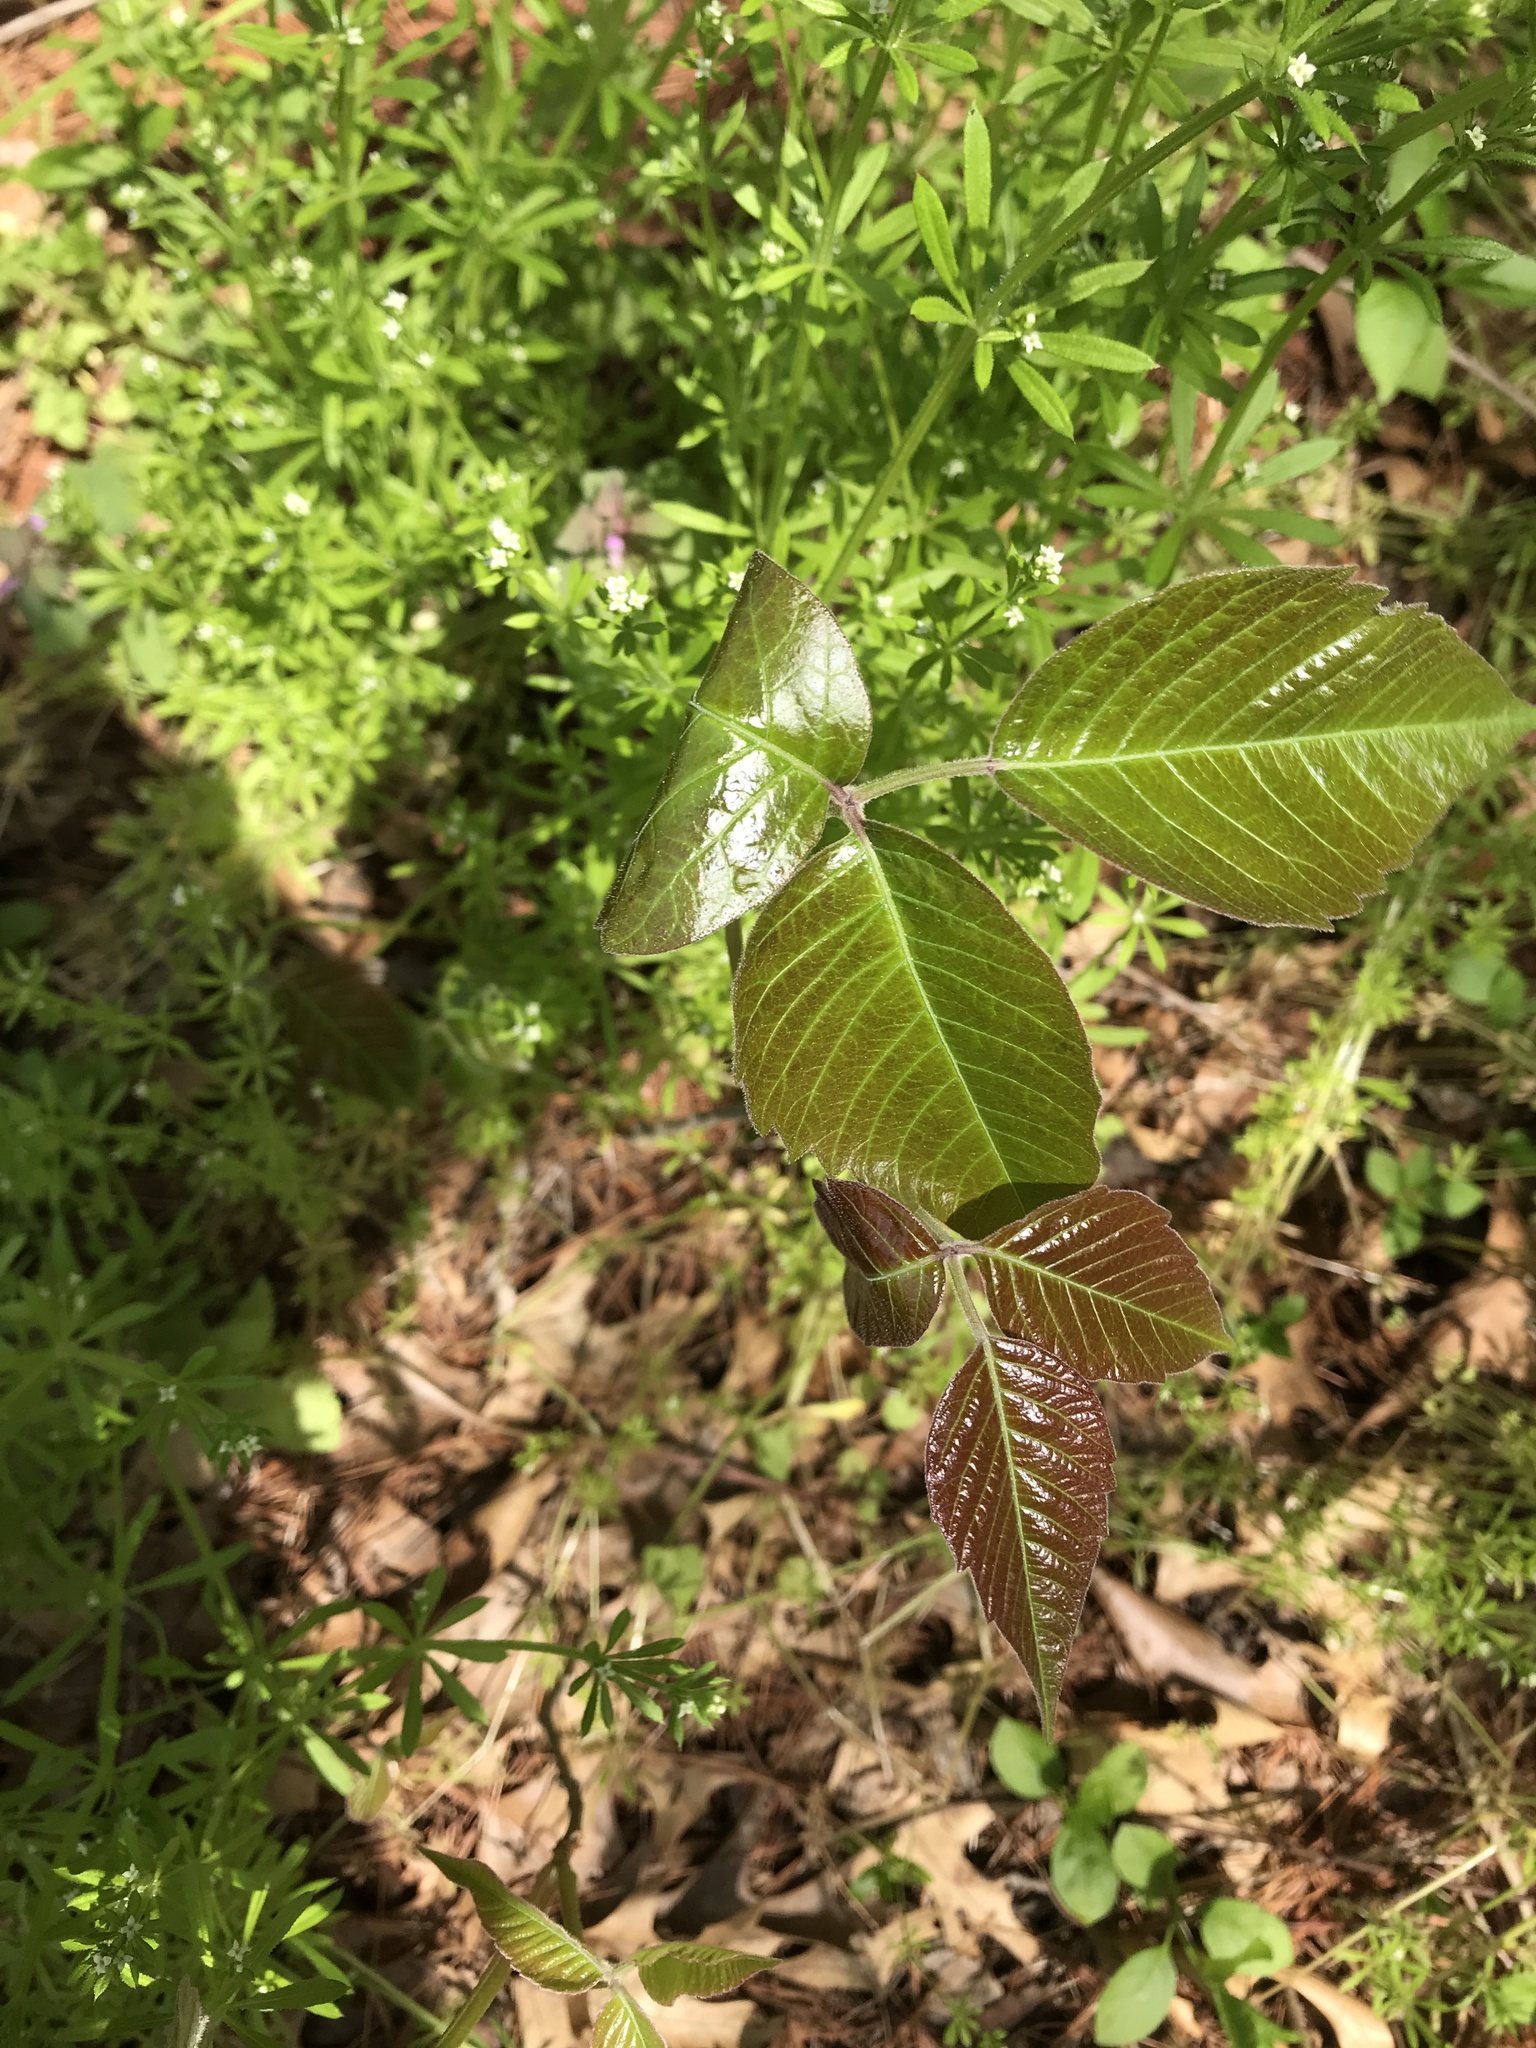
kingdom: Plantae
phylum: Tracheophyta
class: Magnoliopsida
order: Sapindales
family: Anacardiaceae
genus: Toxicodendron
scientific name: Toxicodendron rydbergii
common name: Rydberg's poison-ivy
